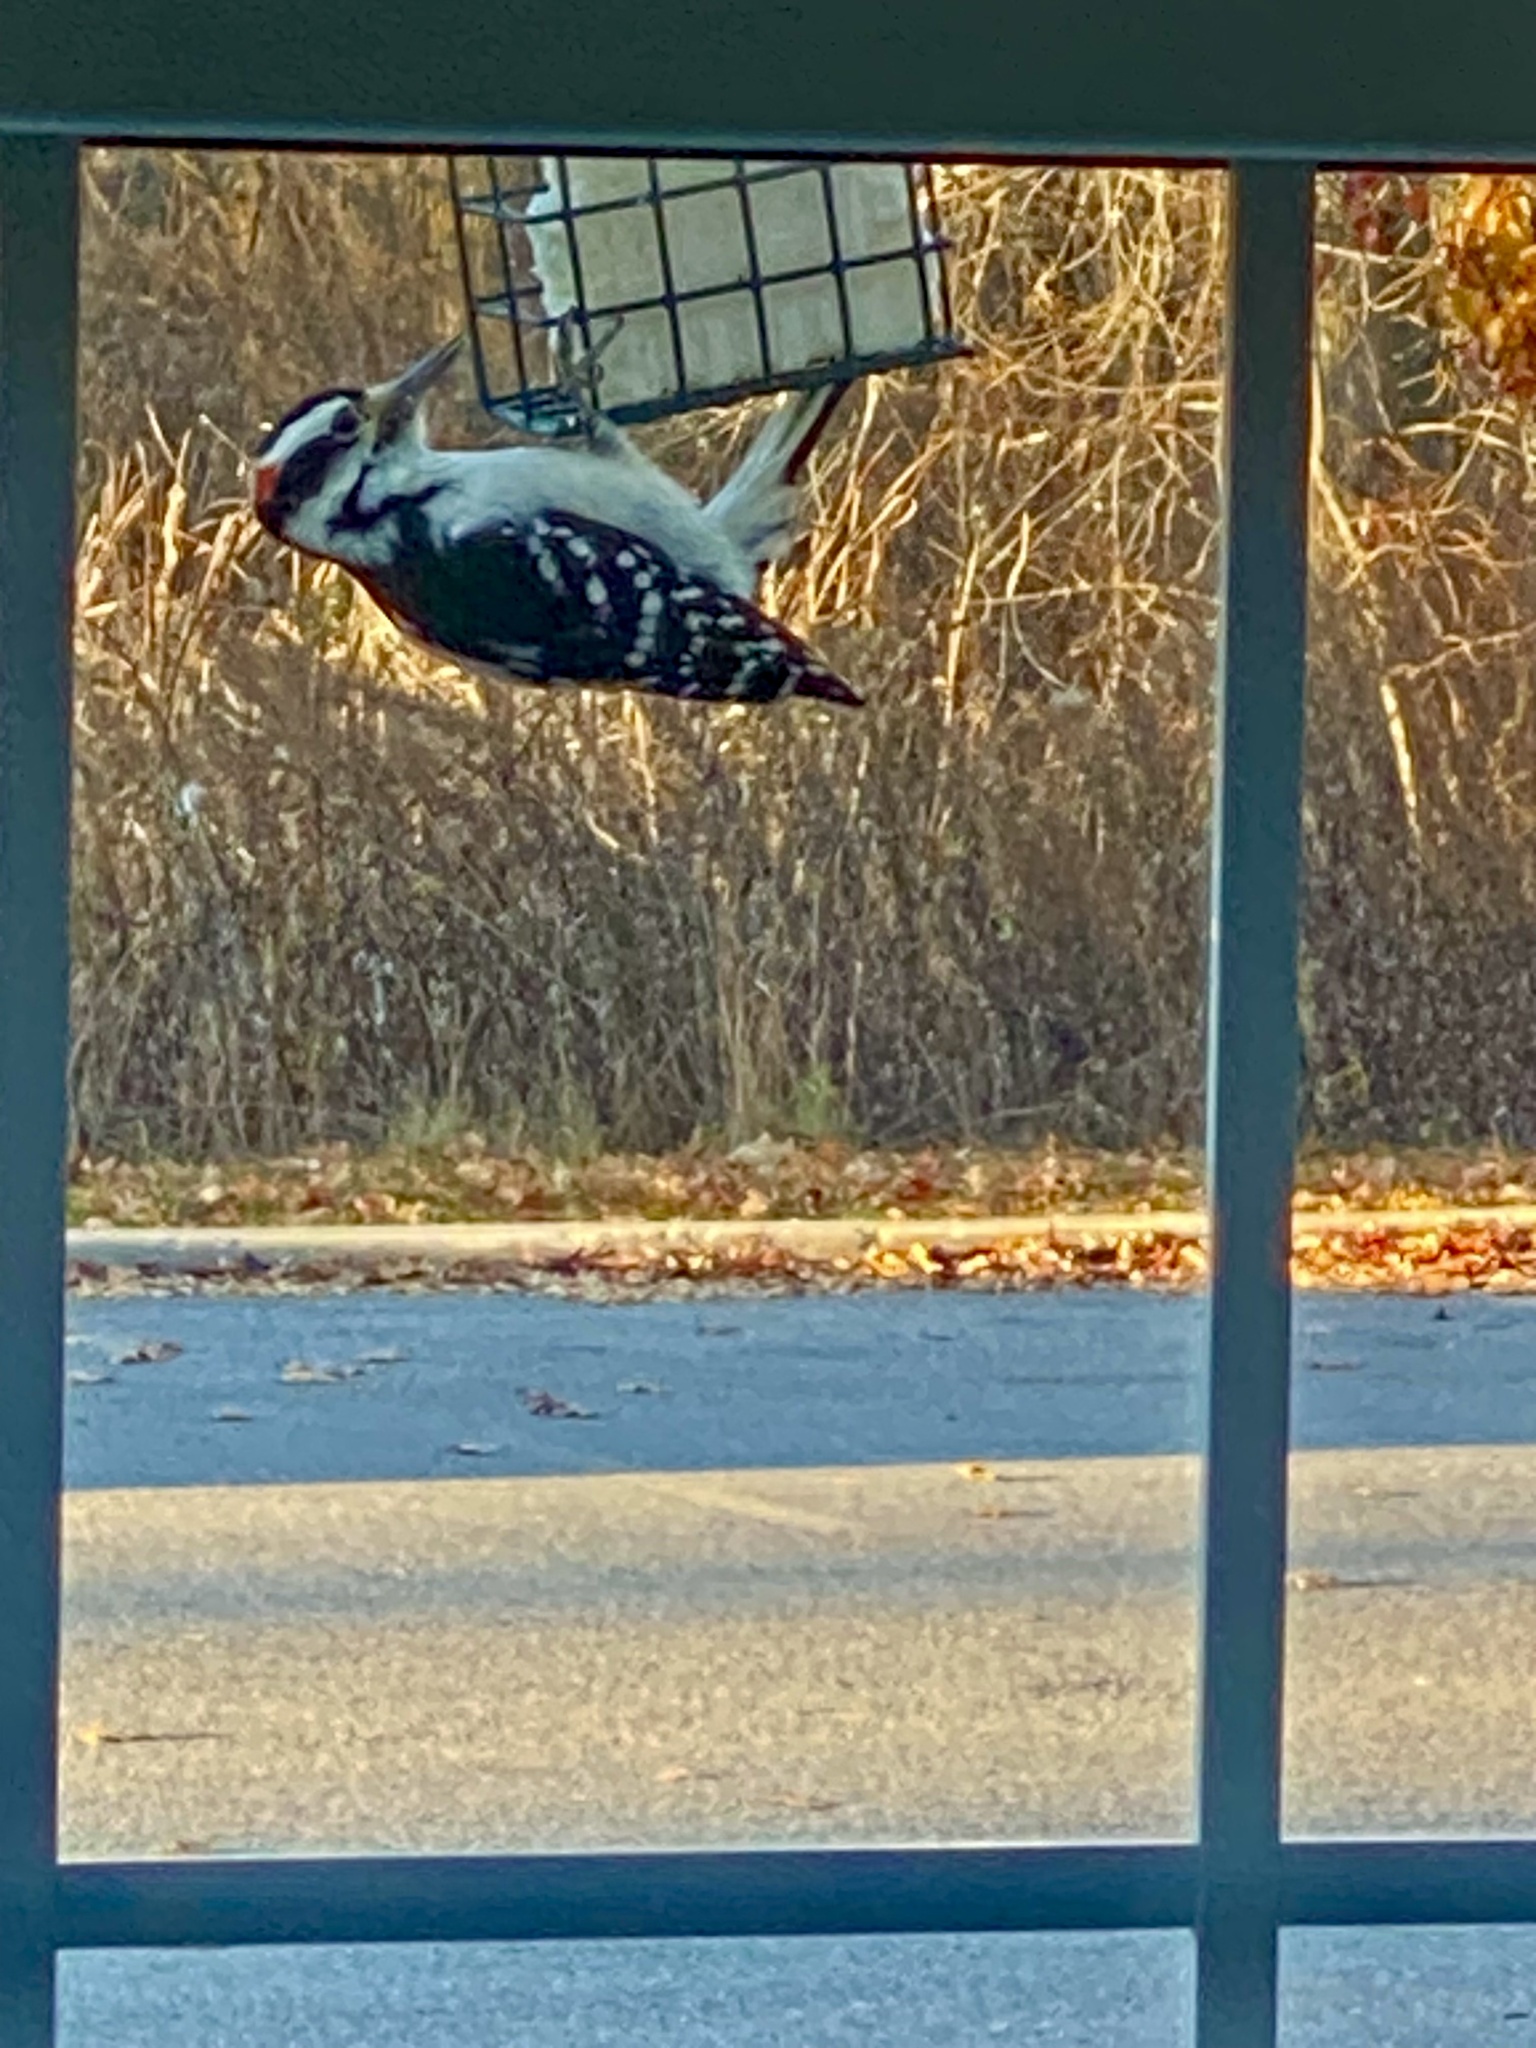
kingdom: Animalia
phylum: Chordata
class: Aves
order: Piciformes
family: Picidae
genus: Leuconotopicus
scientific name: Leuconotopicus villosus
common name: Hairy woodpecker
